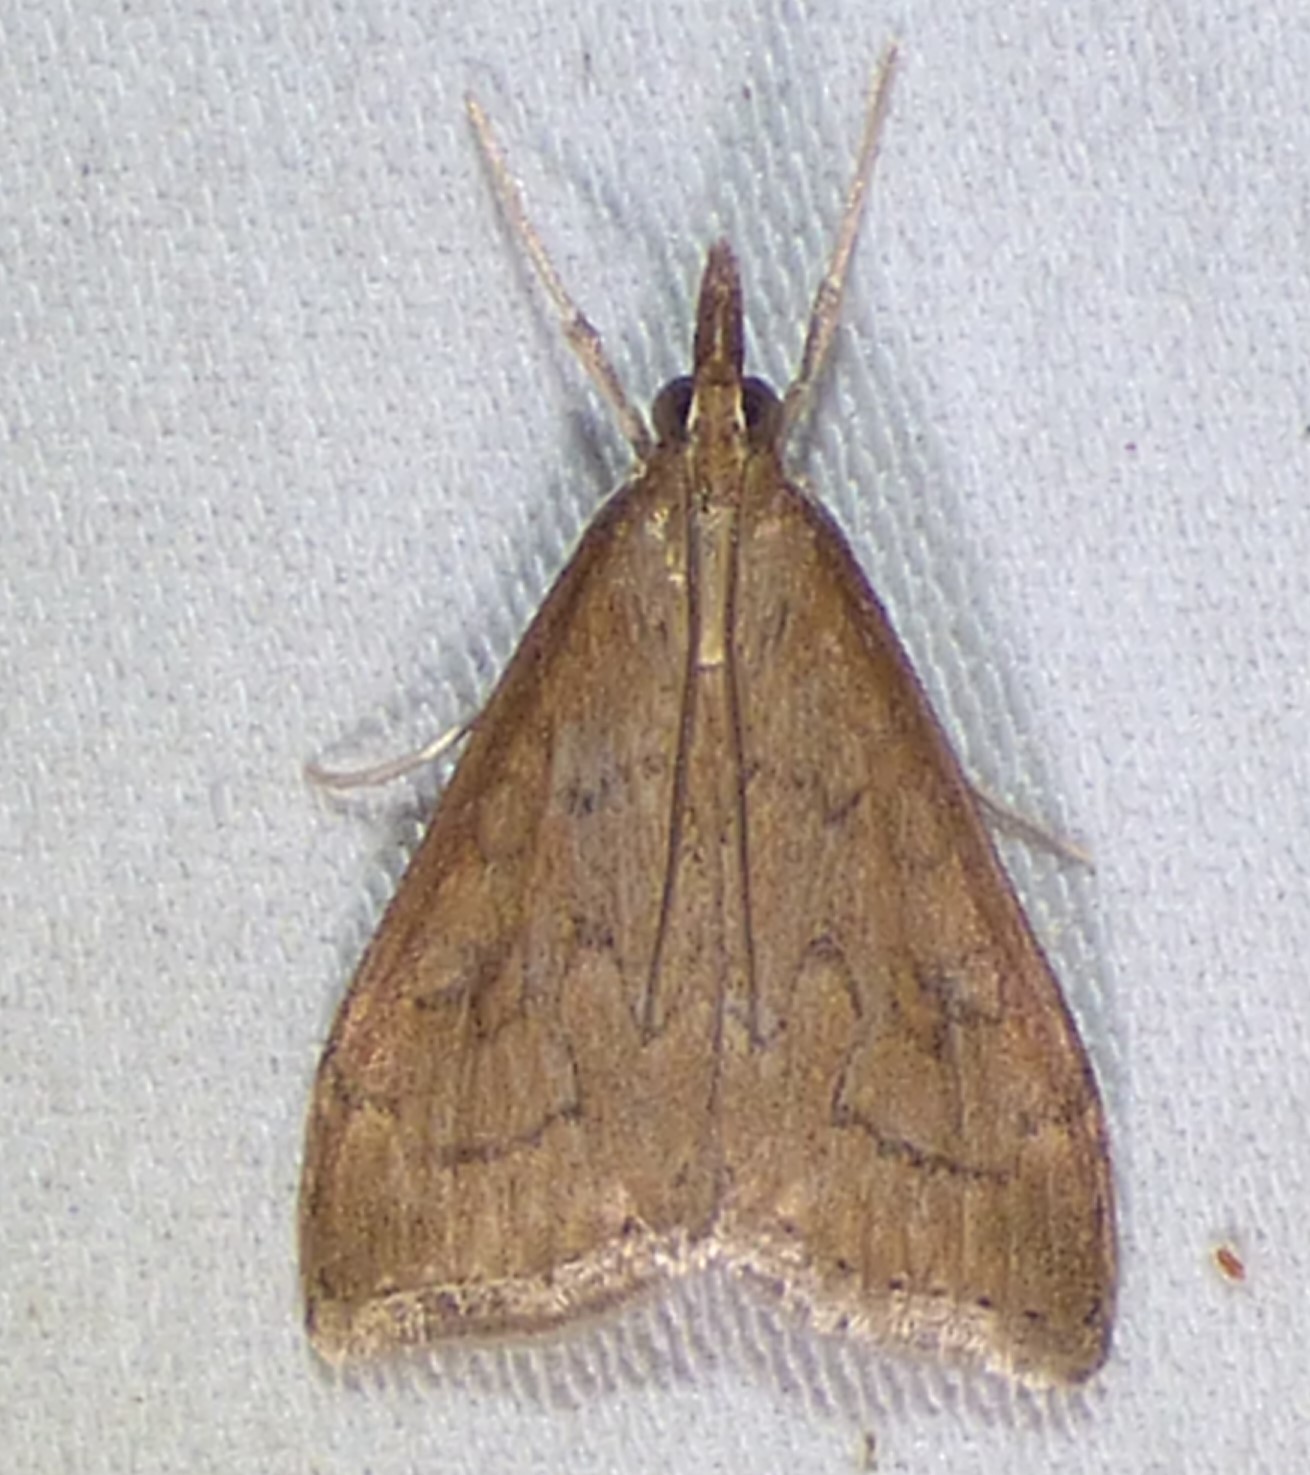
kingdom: Animalia
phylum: Arthropoda
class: Insecta
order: Lepidoptera
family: Crambidae
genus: Udea
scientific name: Udea rubigalis
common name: Celery leaftier moth
